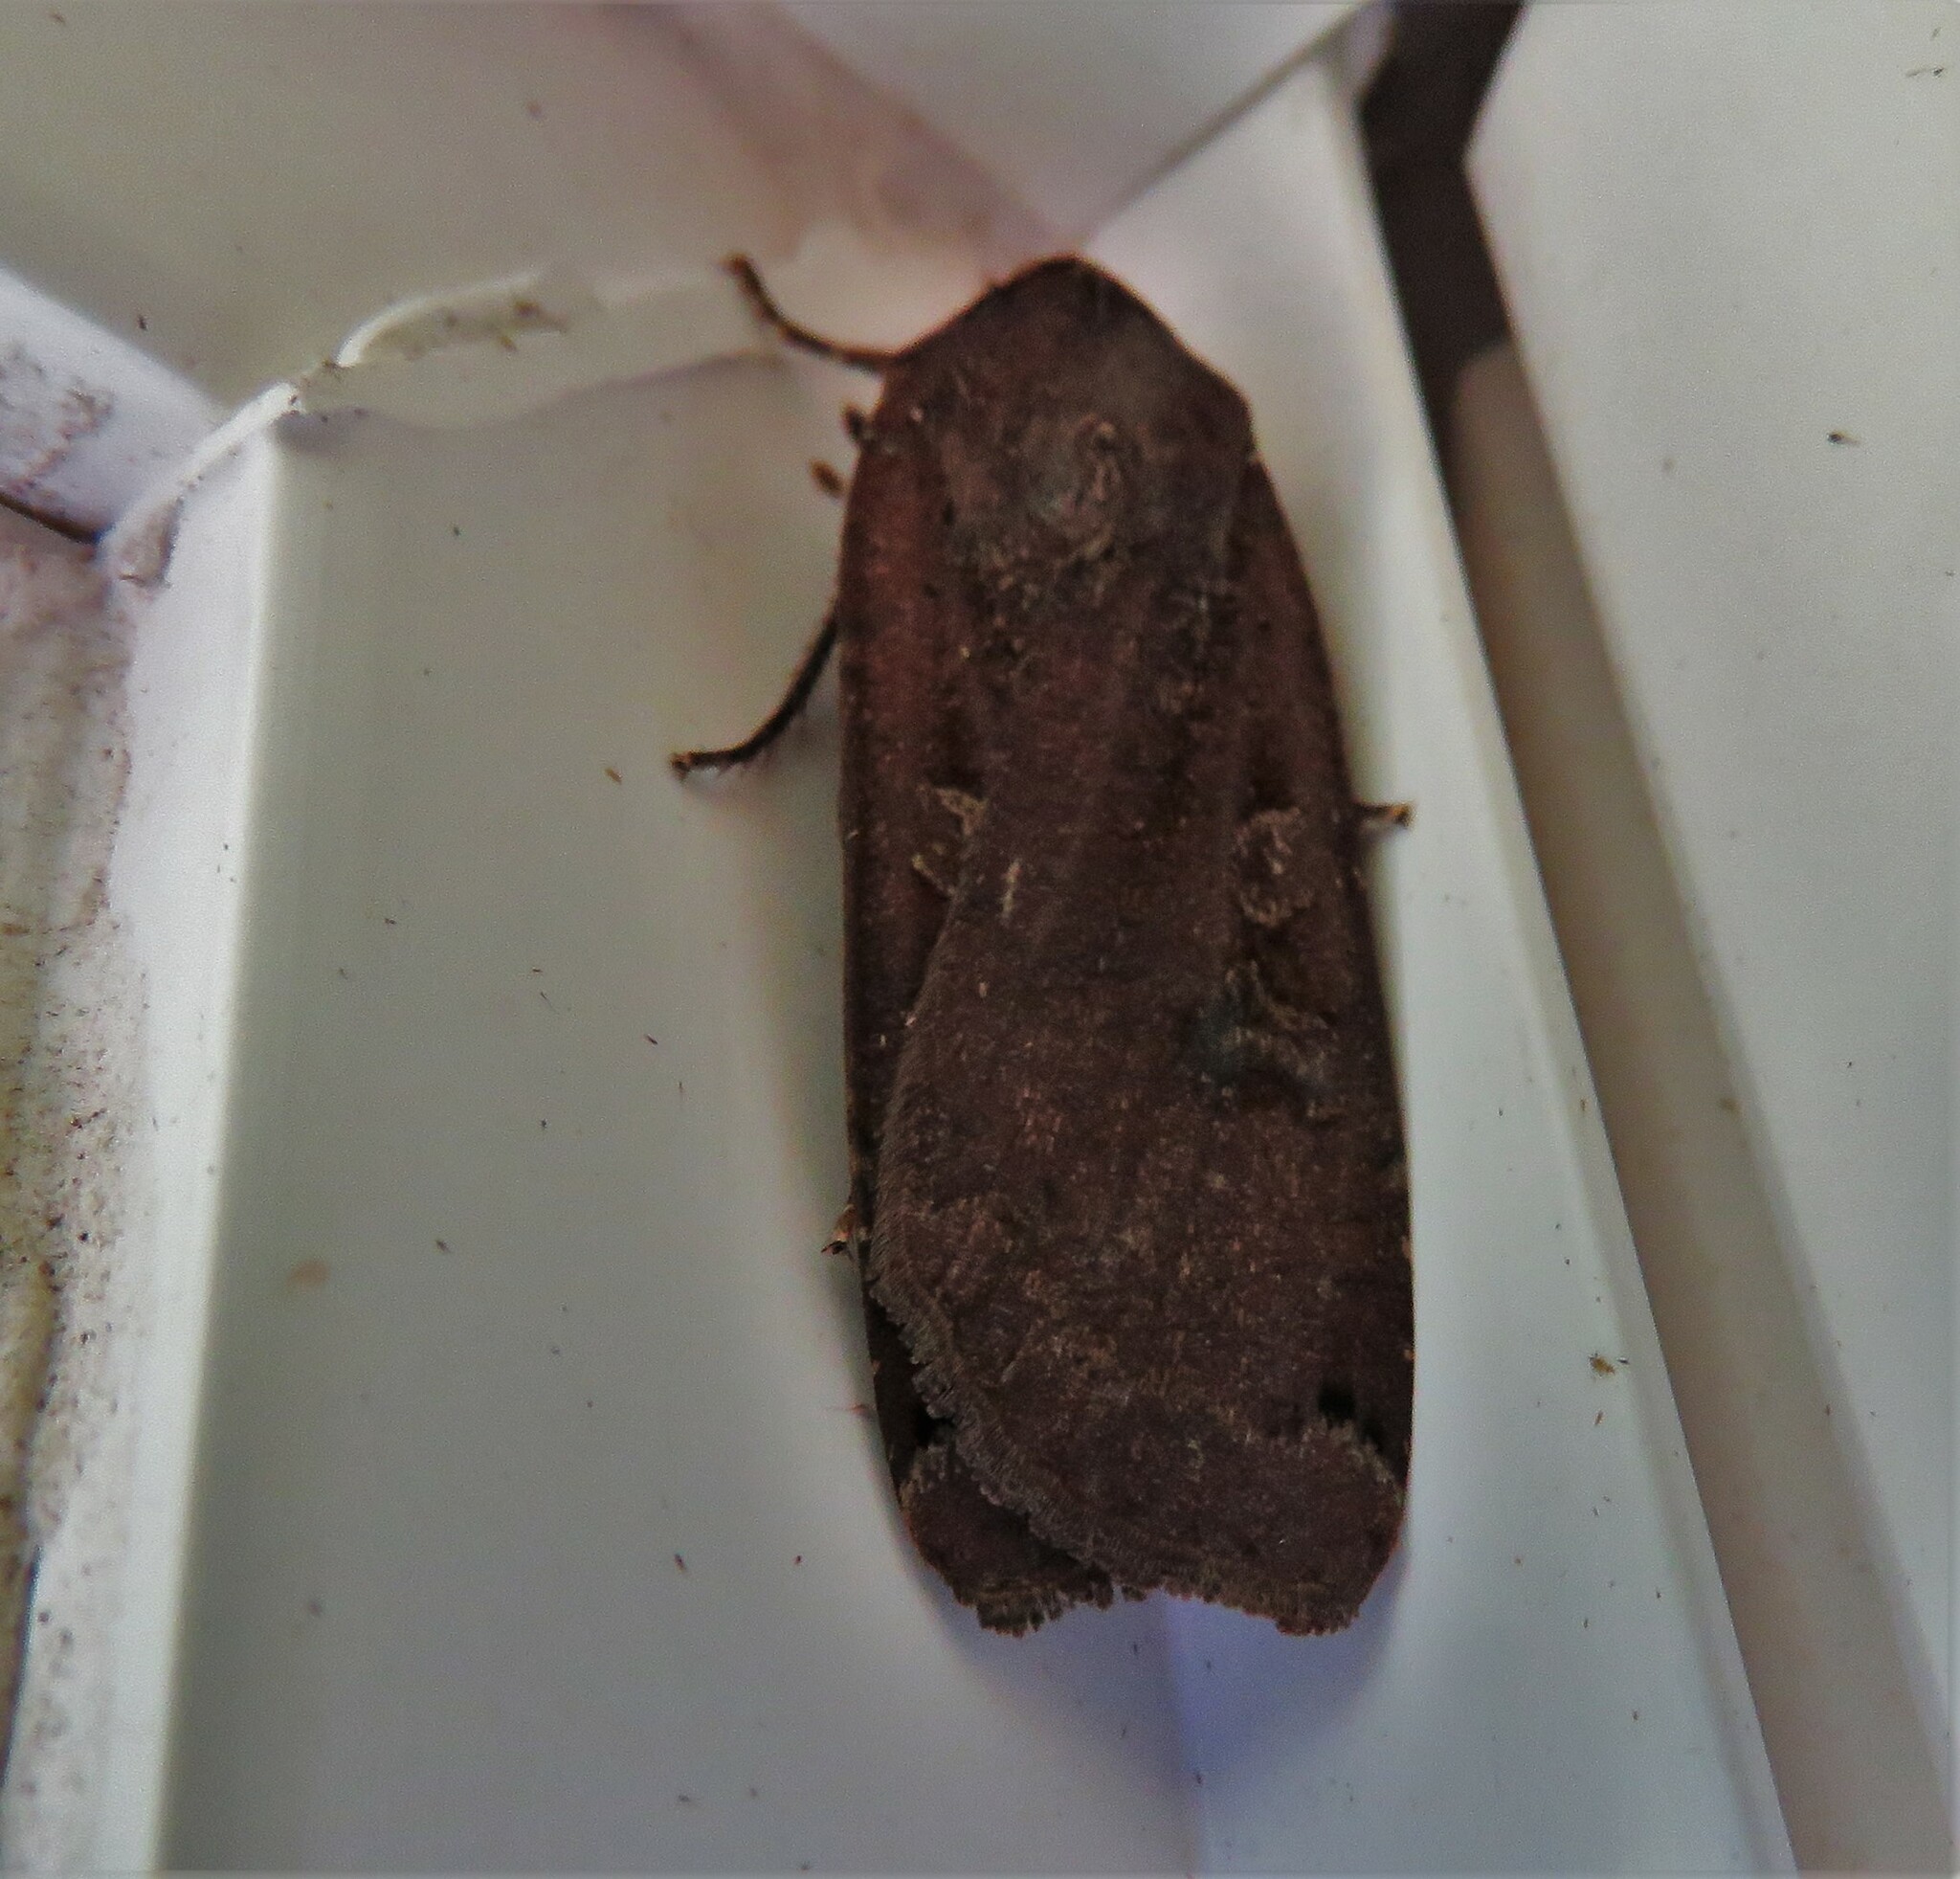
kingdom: Animalia
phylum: Arthropoda
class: Insecta
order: Lepidoptera
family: Noctuidae
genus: Noctua
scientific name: Noctua pronuba
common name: Large yellow underwing
